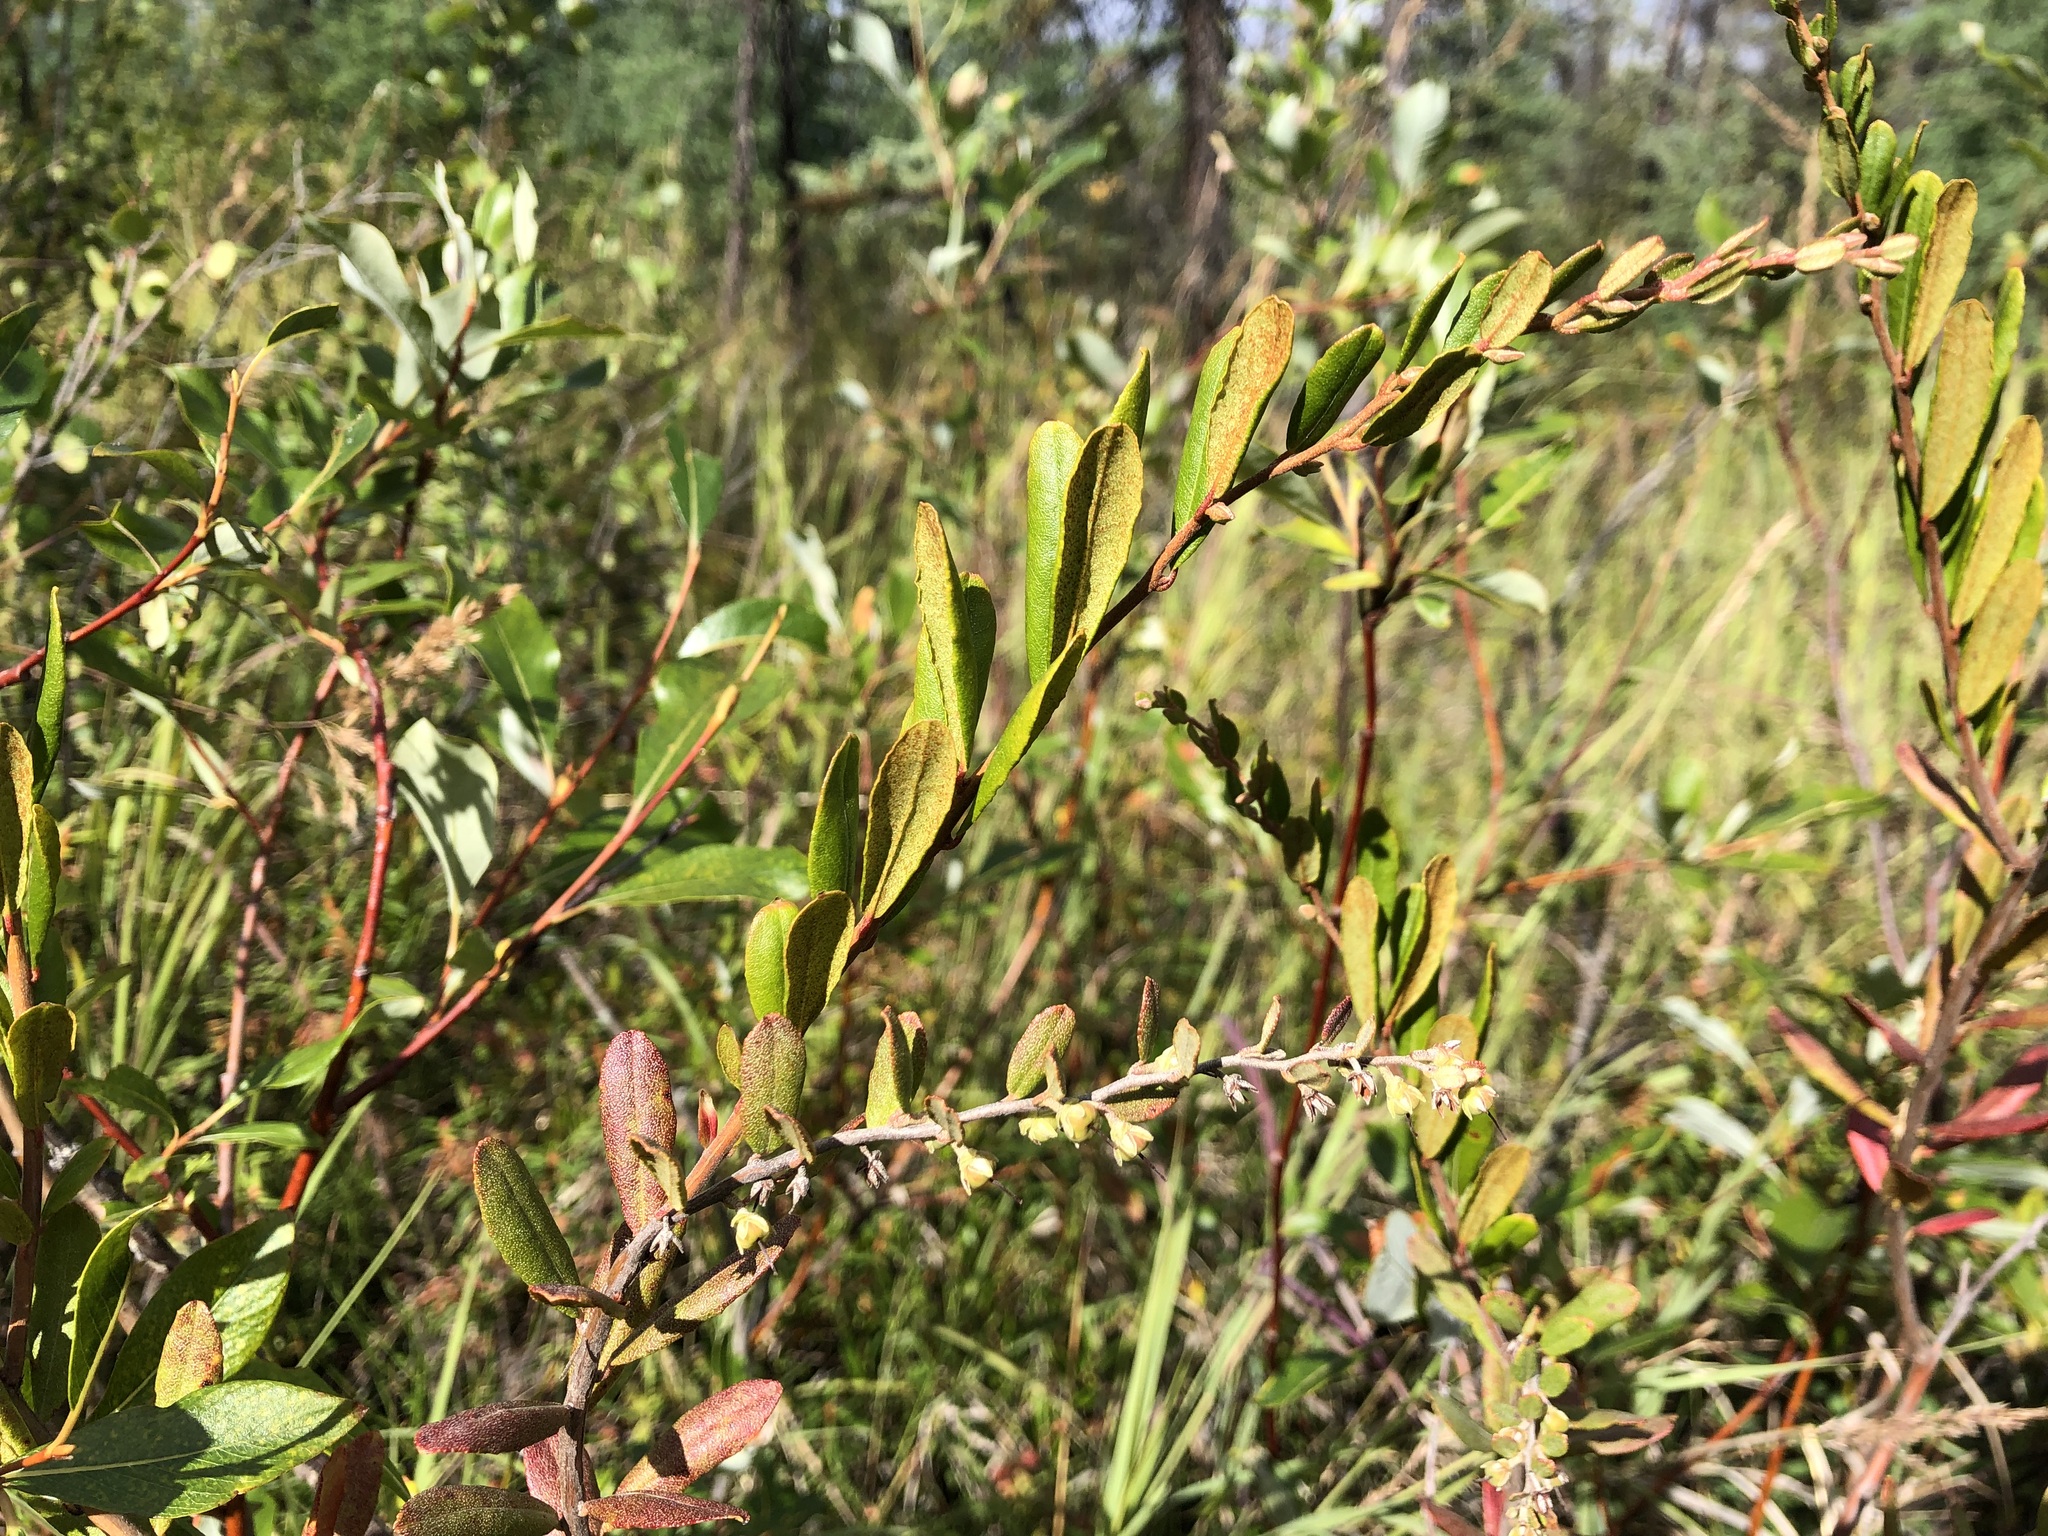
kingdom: Plantae
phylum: Tracheophyta
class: Magnoliopsida
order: Ericales
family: Ericaceae
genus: Chamaedaphne
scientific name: Chamaedaphne calyculata
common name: Leatherleaf
